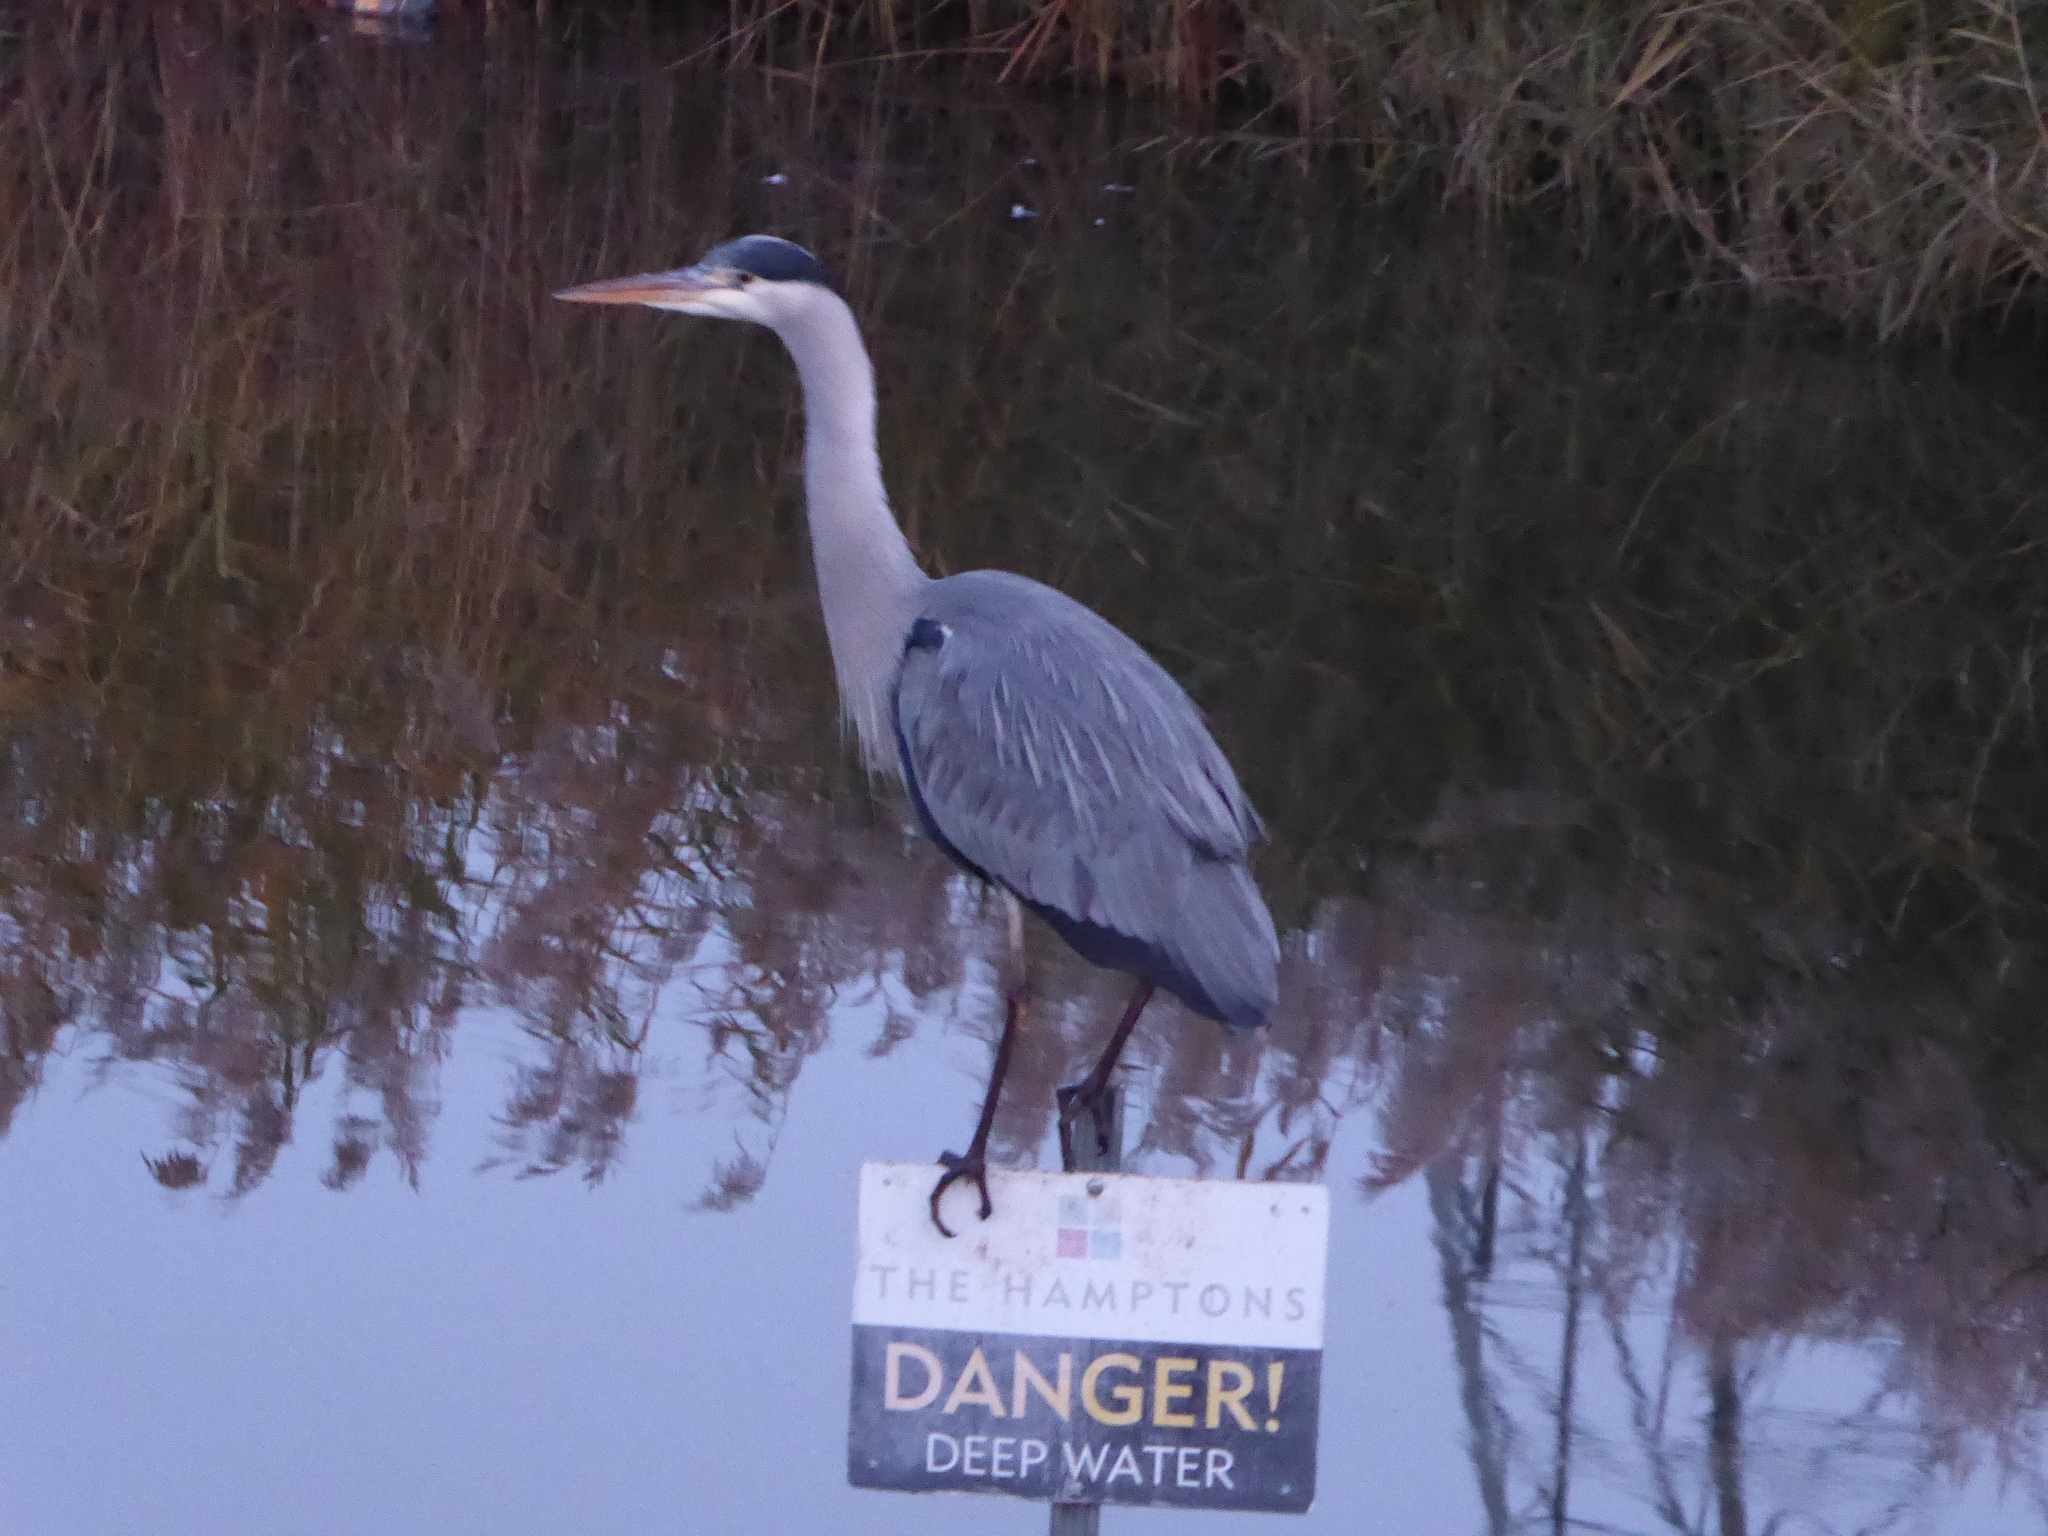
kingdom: Animalia
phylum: Chordata
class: Aves
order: Pelecaniformes
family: Ardeidae
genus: Ardea
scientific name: Ardea cinerea
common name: Grey heron
